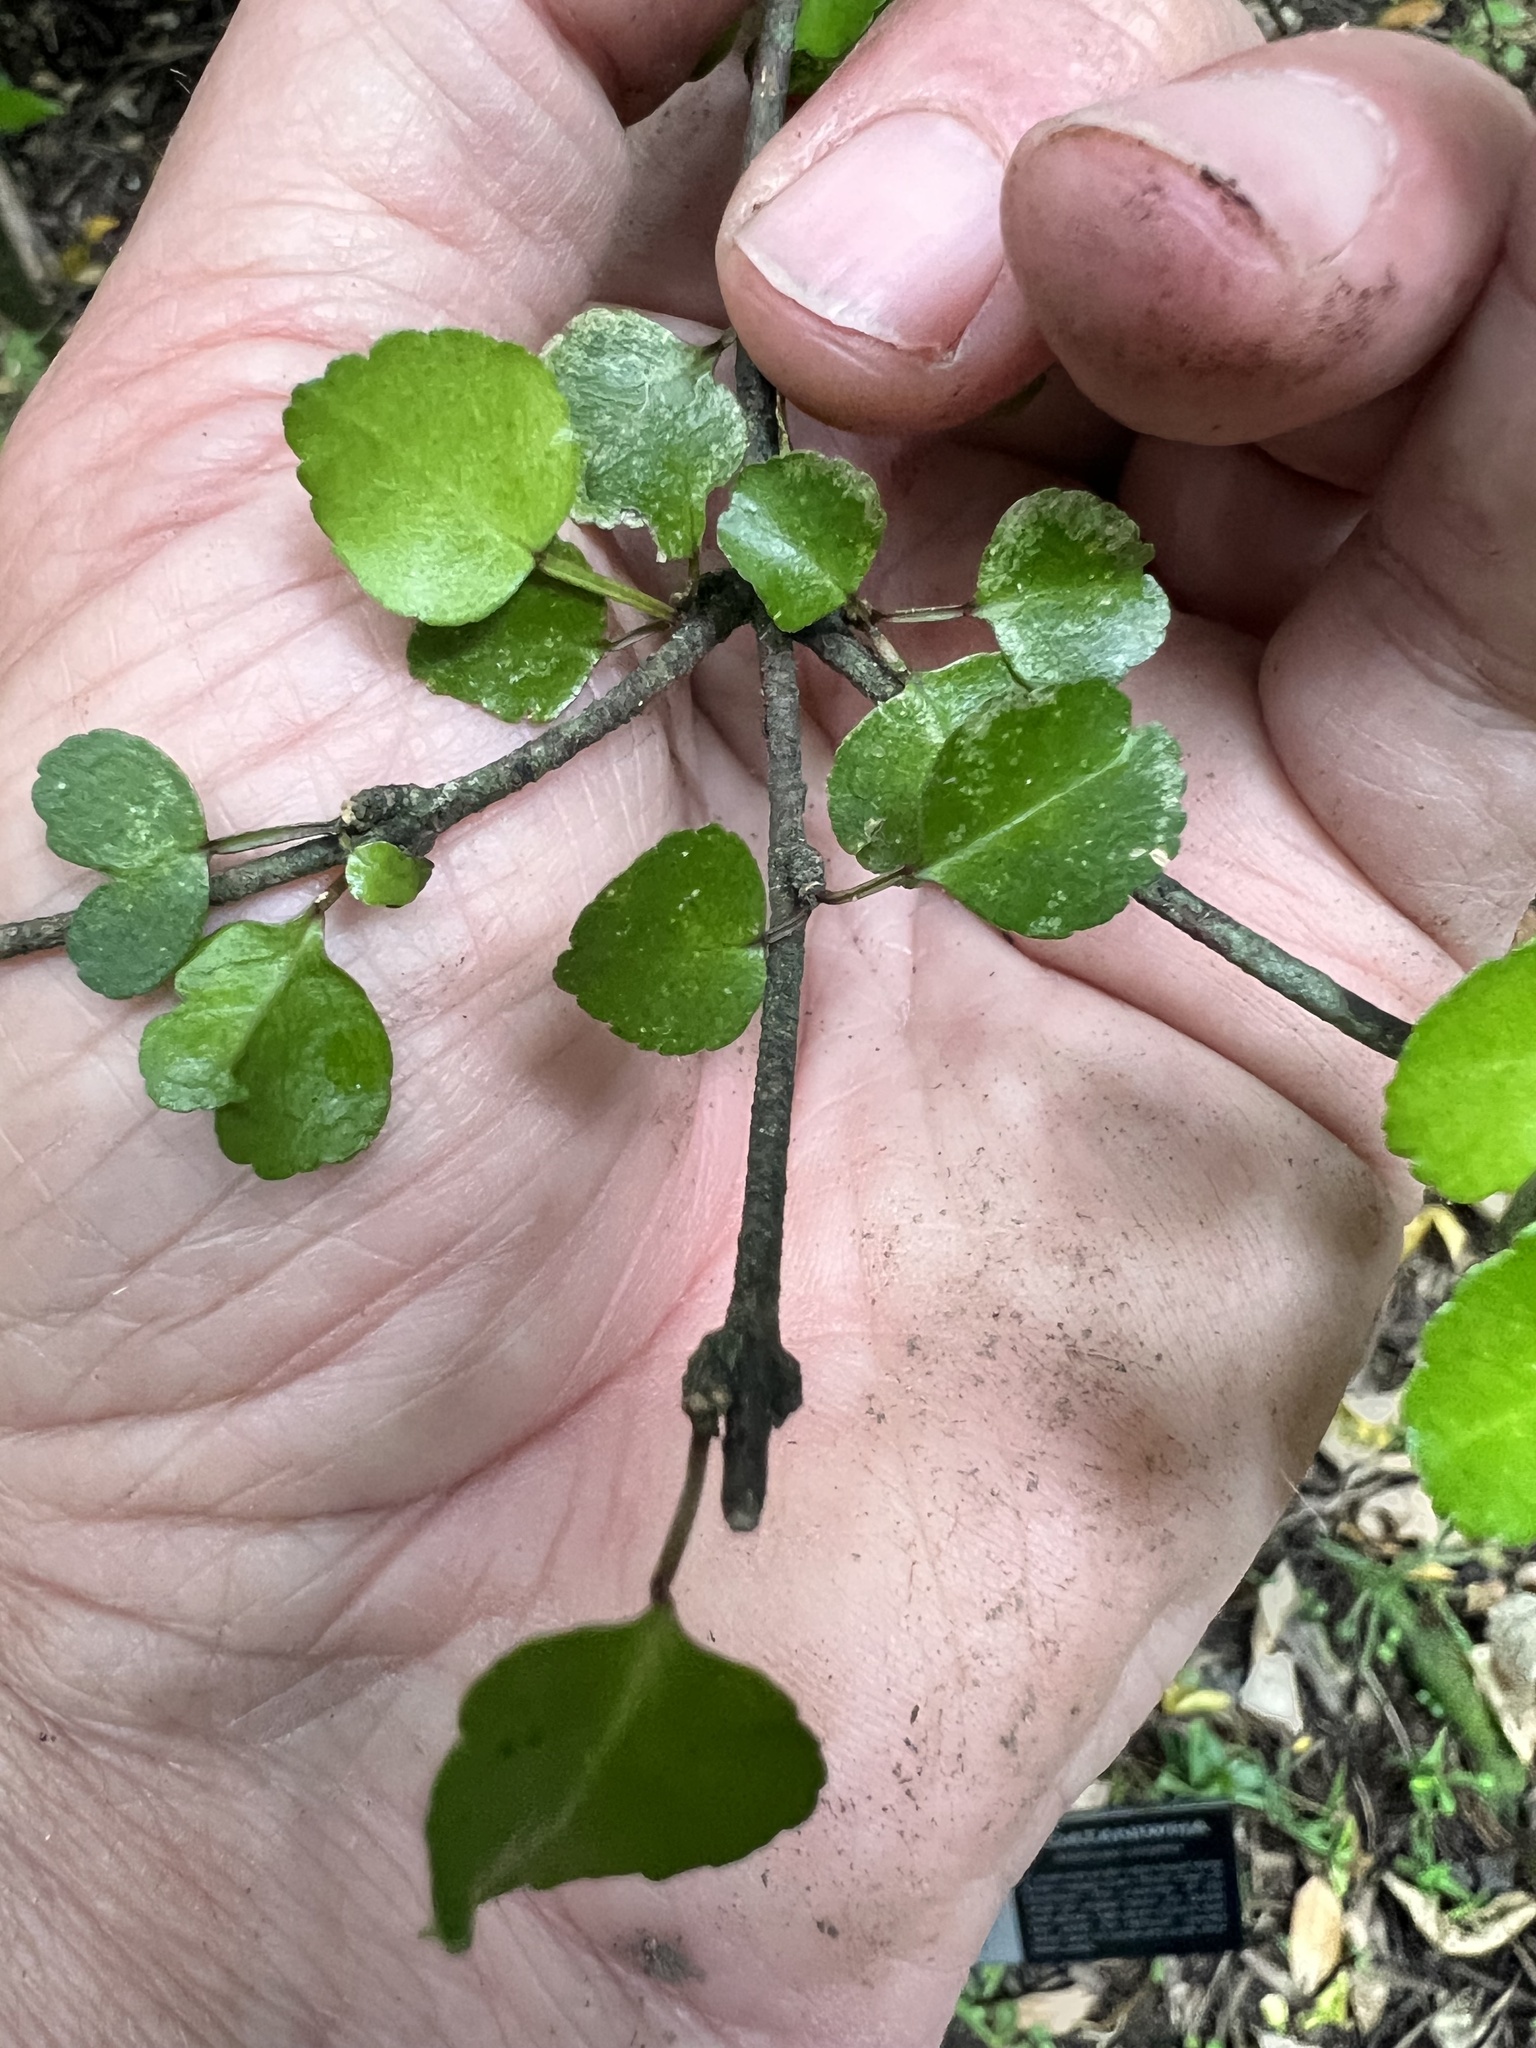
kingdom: Plantae
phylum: Tracheophyta
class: Magnoliopsida
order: Sapindales
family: Rutaceae
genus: Melicope
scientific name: Melicope simplex
